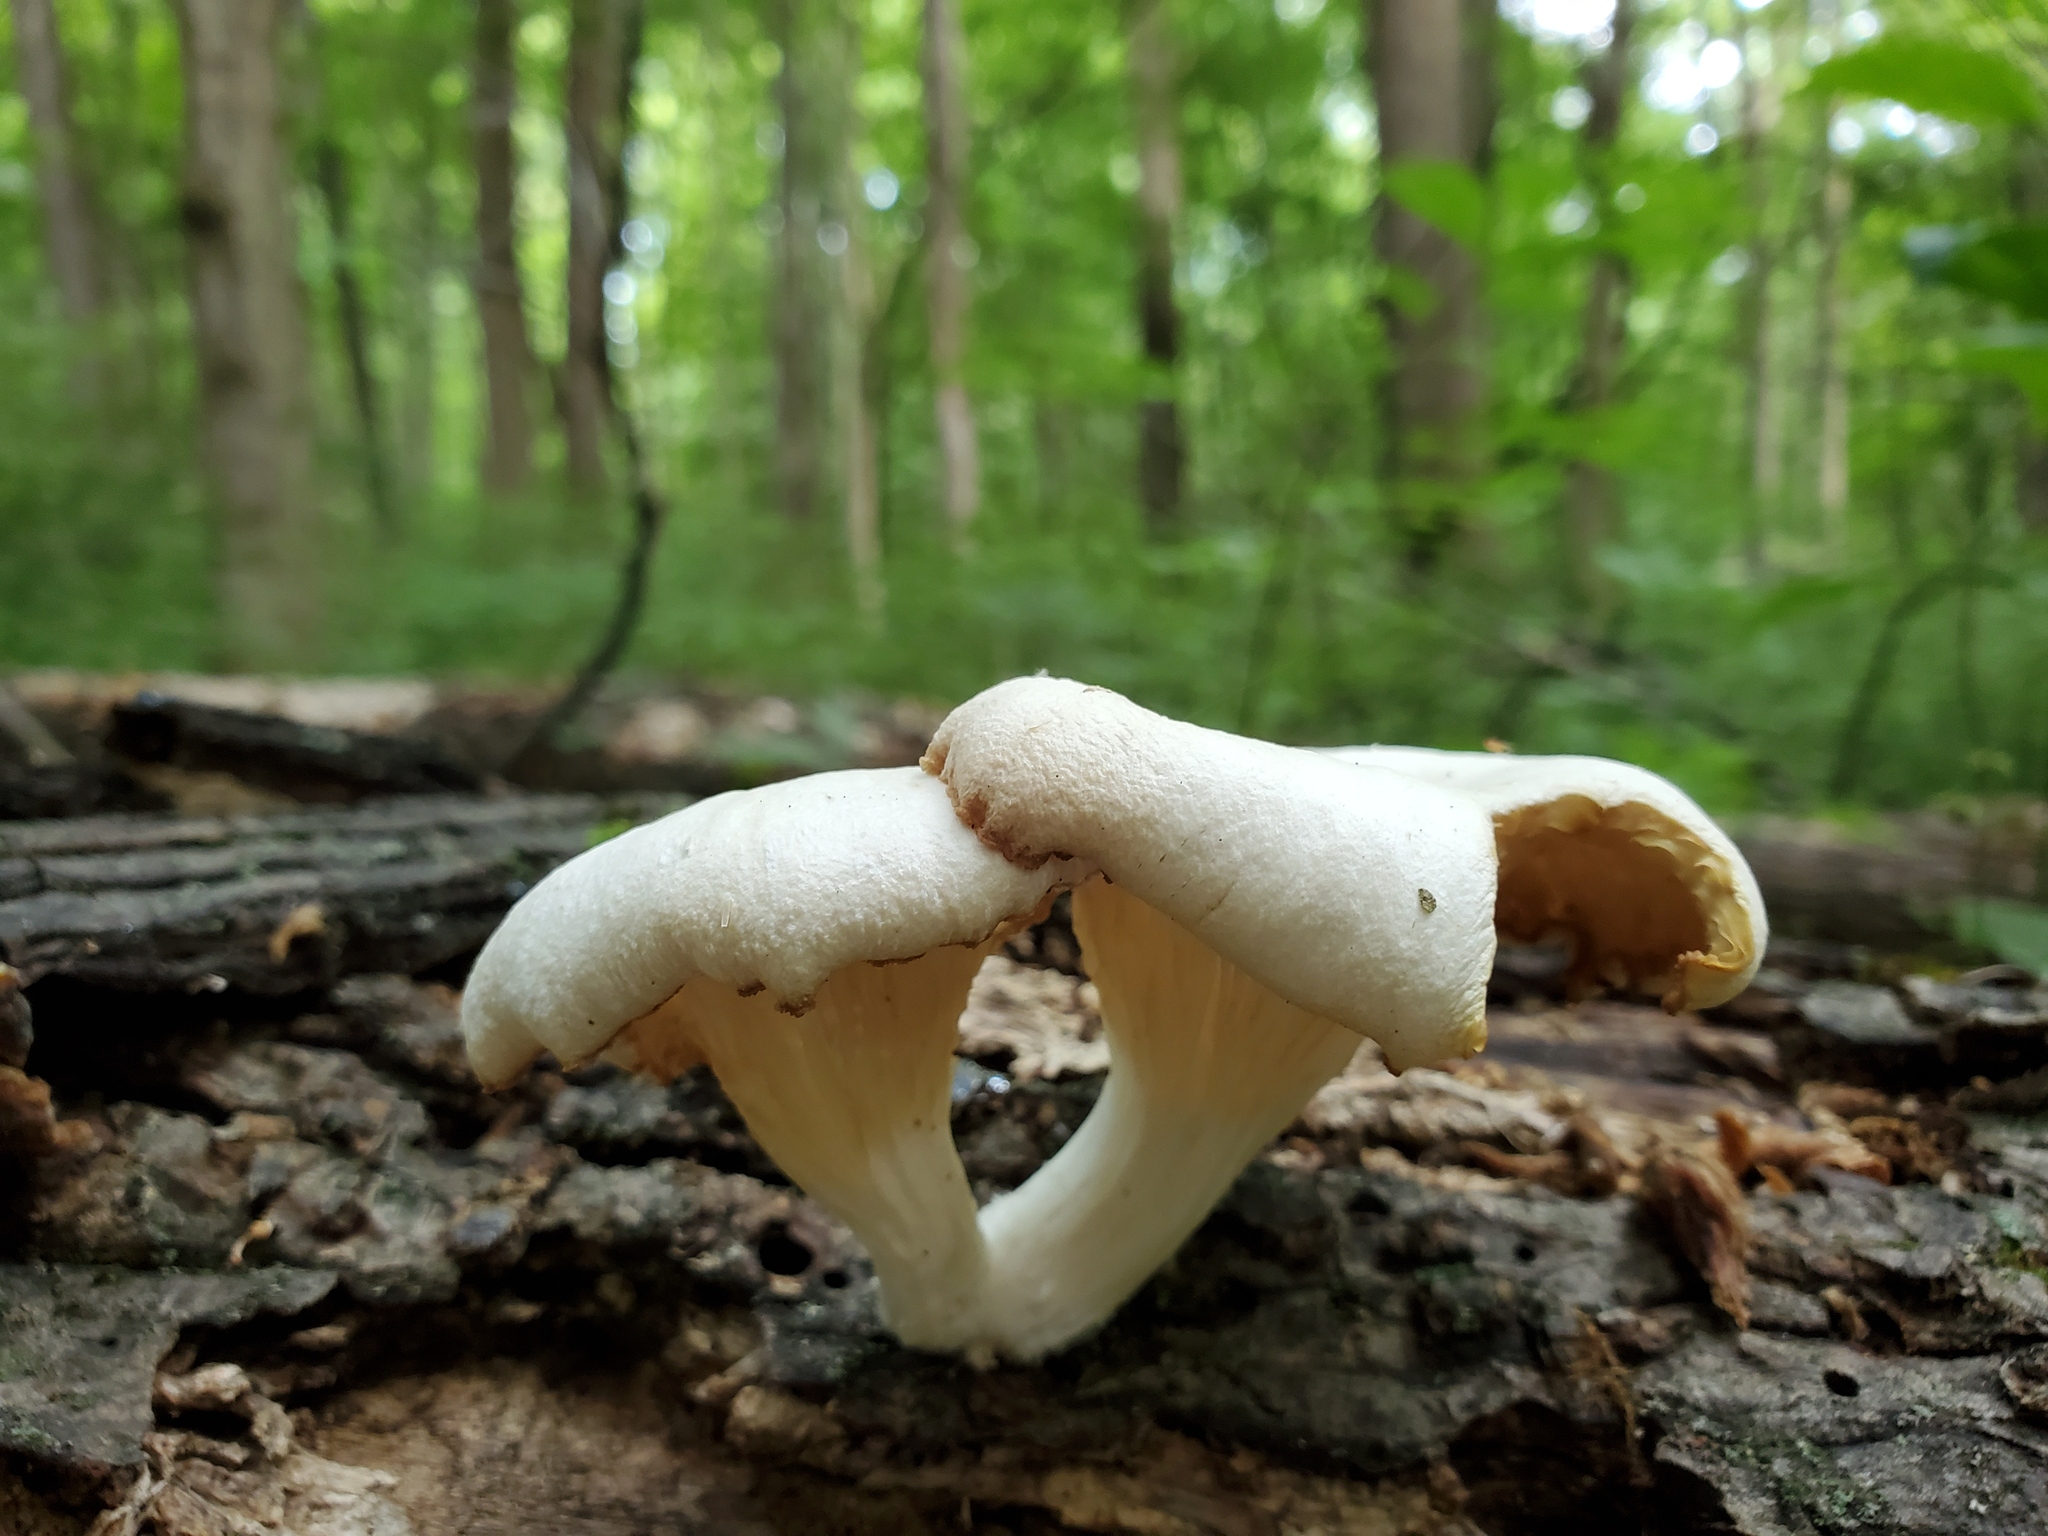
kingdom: Fungi
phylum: Basidiomycota
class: Agaricomycetes
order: Agaricales
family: Pleurotaceae
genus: Pleurotus
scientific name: Pleurotus pulmonarius
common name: Pale oyster
